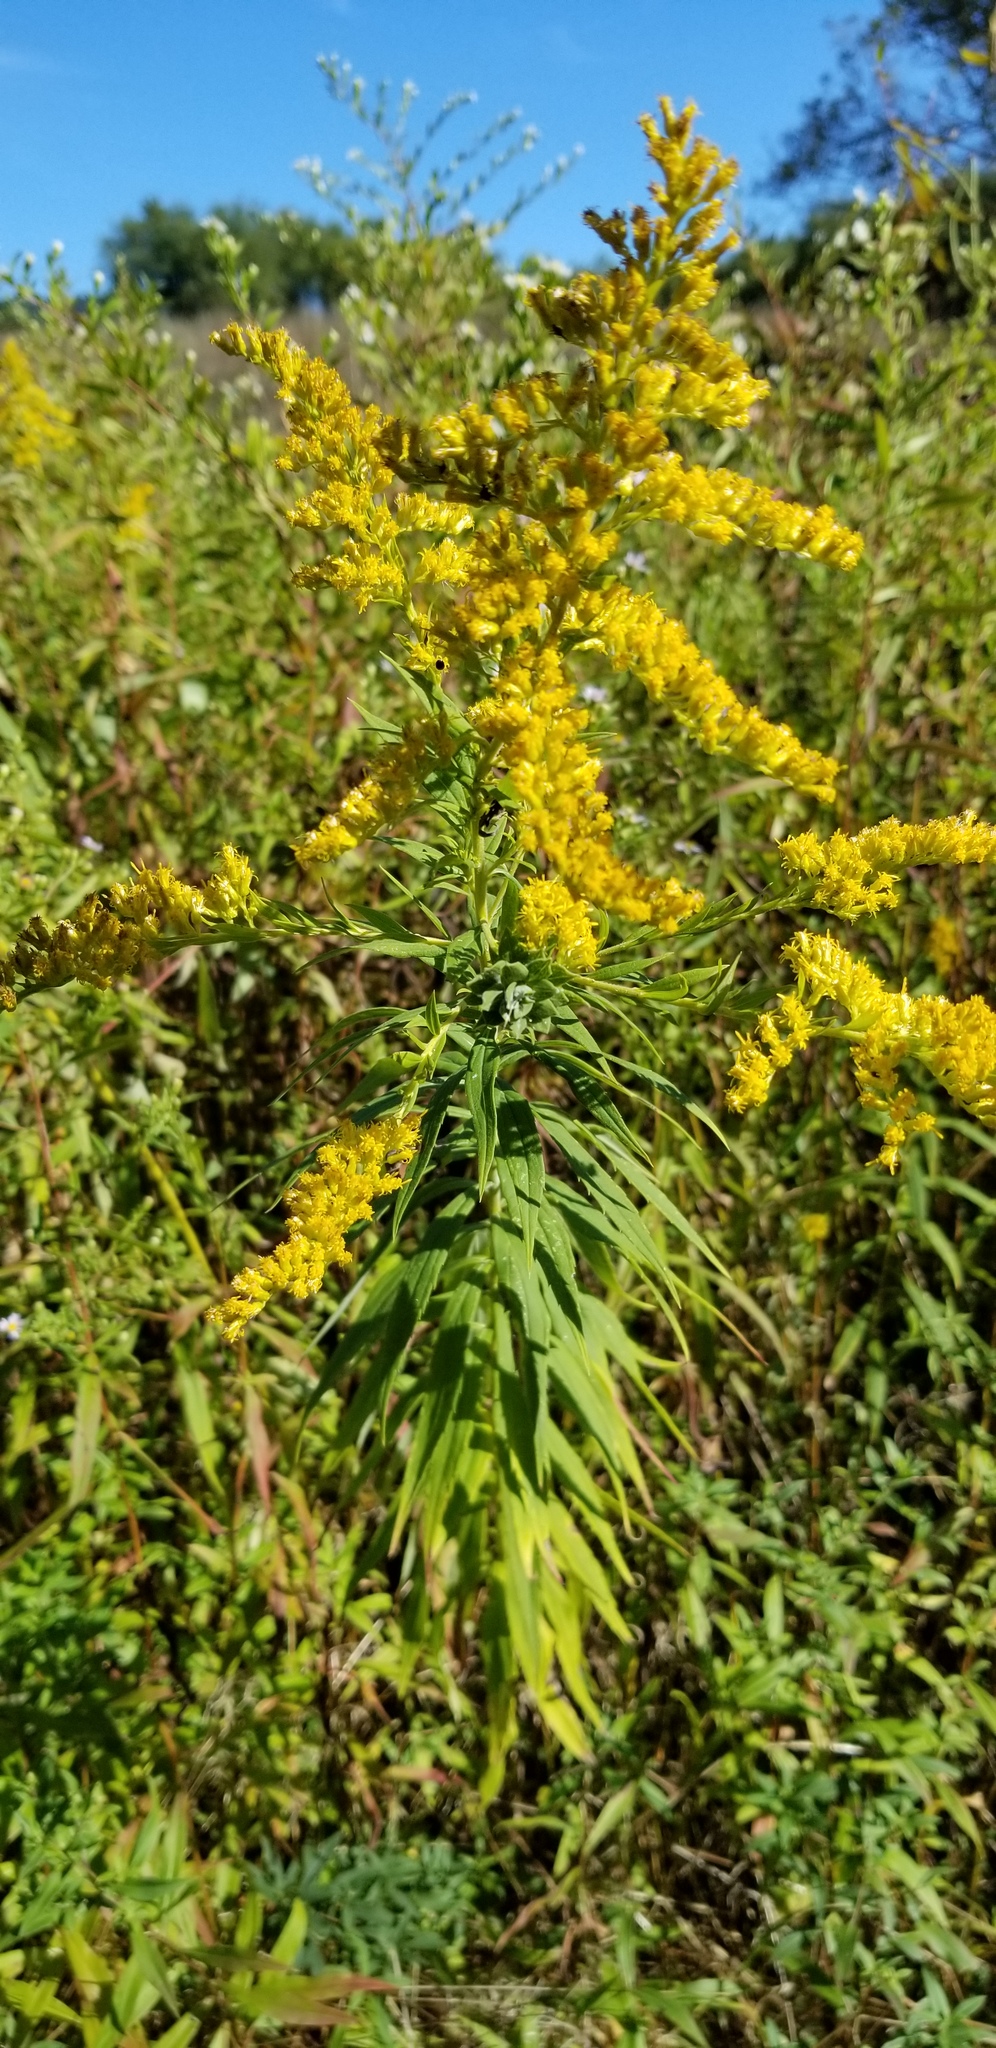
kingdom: Plantae
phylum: Tracheophyta
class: Magnoliopsida
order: Asterales
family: Asteraceae
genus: Solidago
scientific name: Solidago altissima
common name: Late goldenrod
